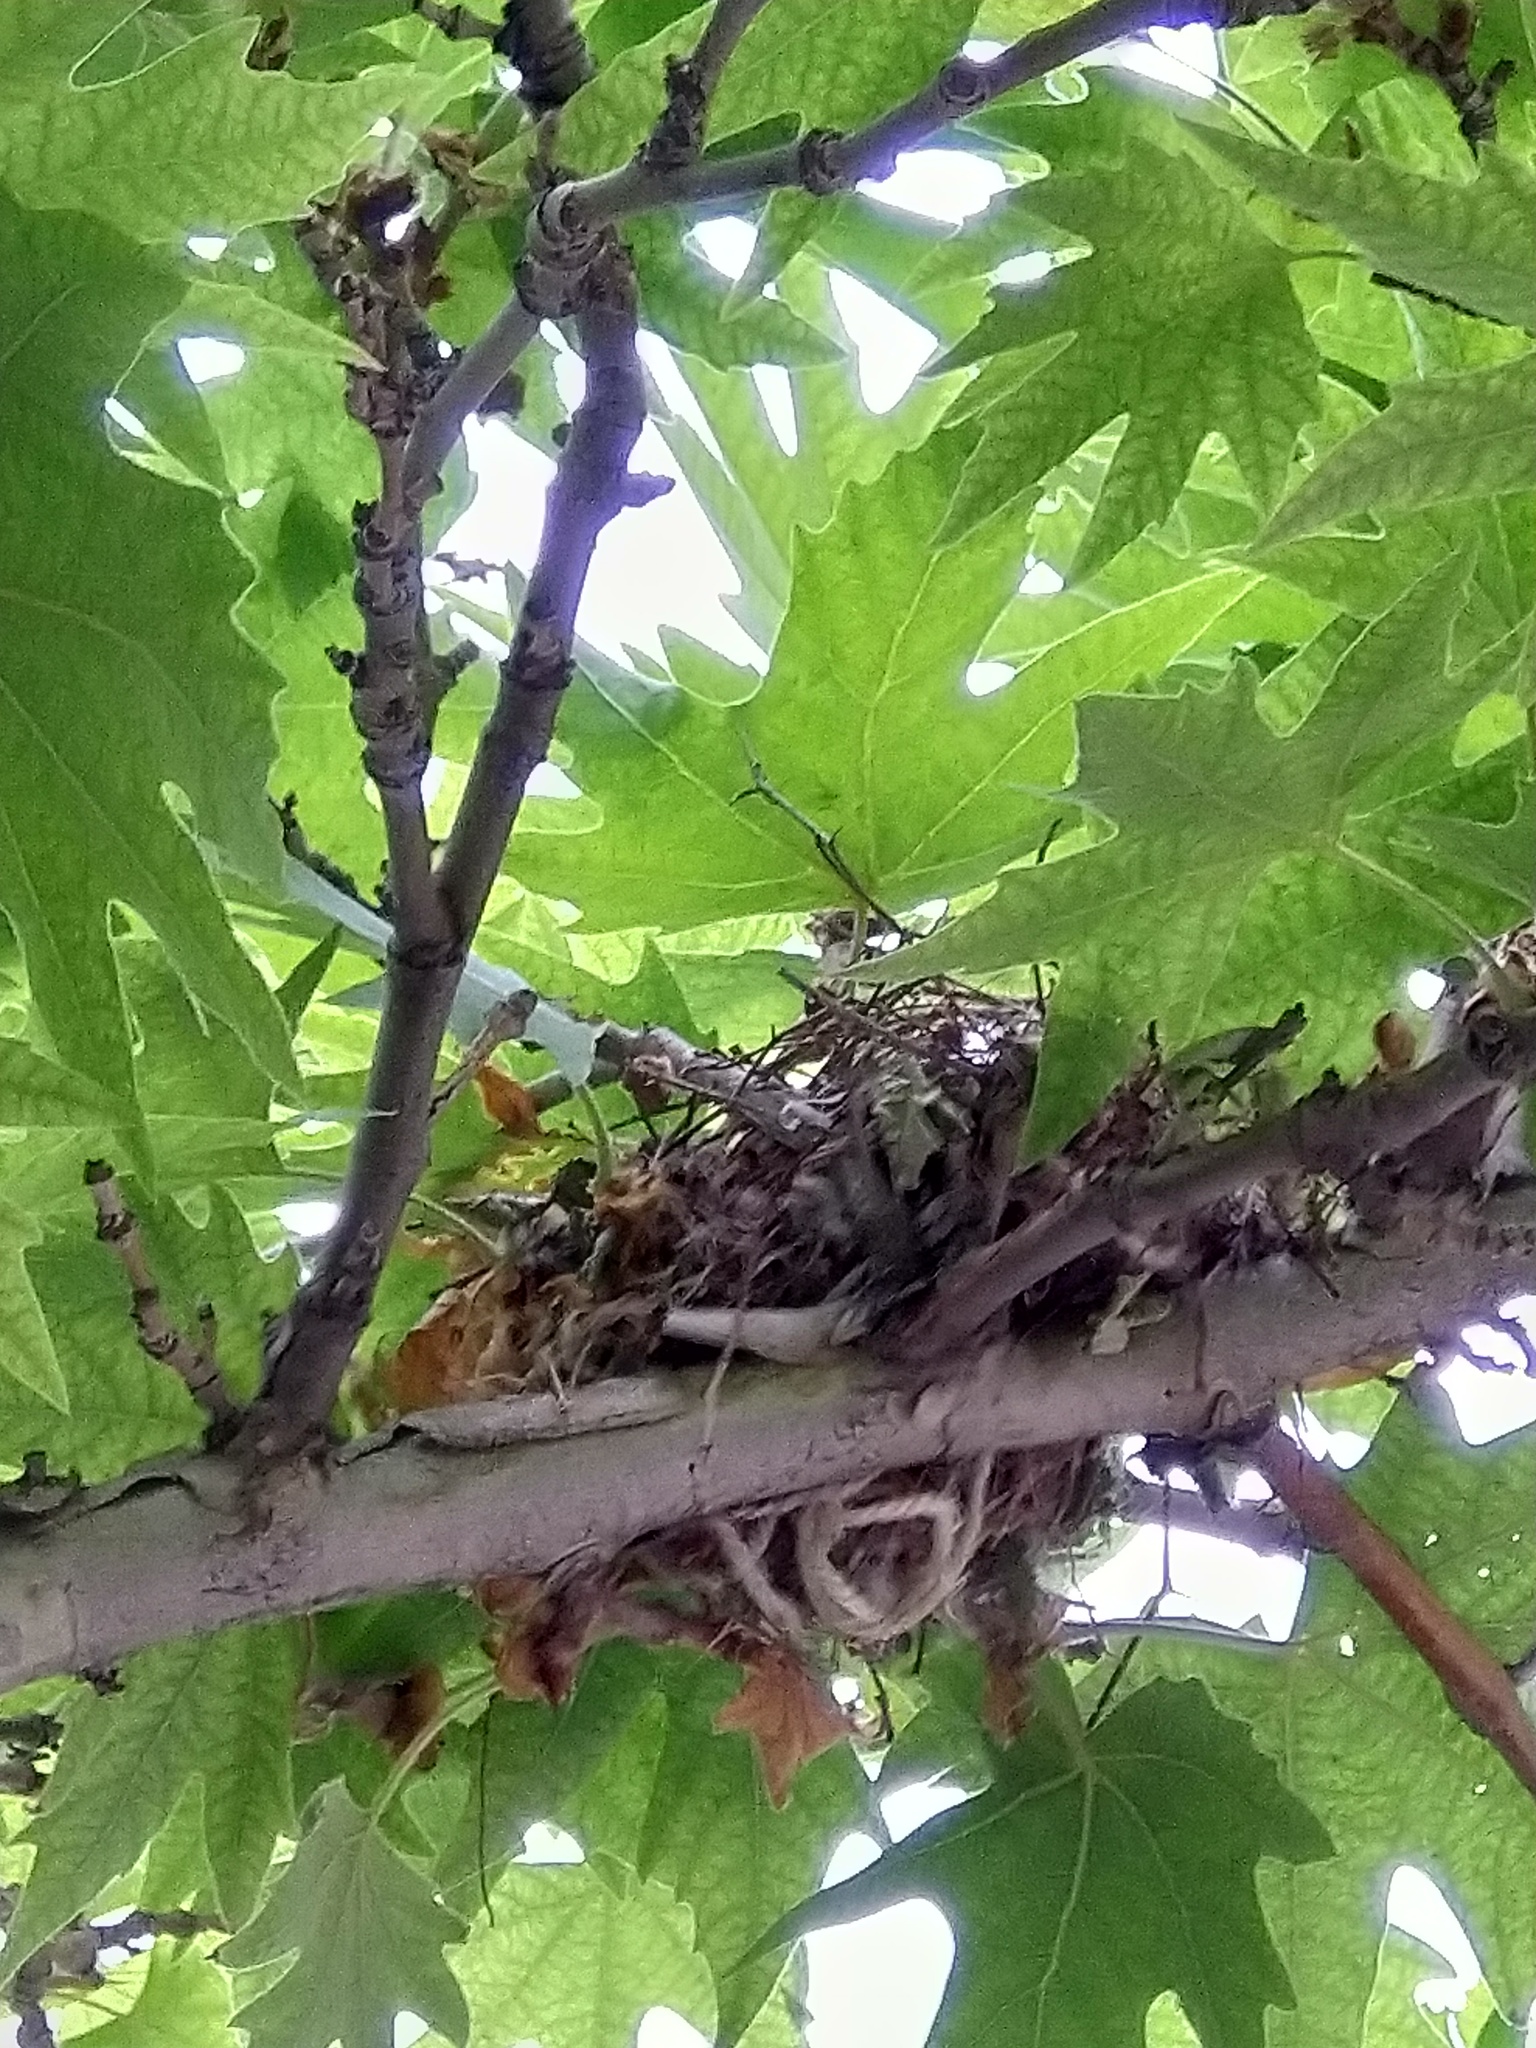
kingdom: Animalia
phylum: Chordata
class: Aves
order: Passeriformes
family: Pycnonotidae
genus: Pycnonotus
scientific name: Pycnonotus leucotis
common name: White-eared bulbul
